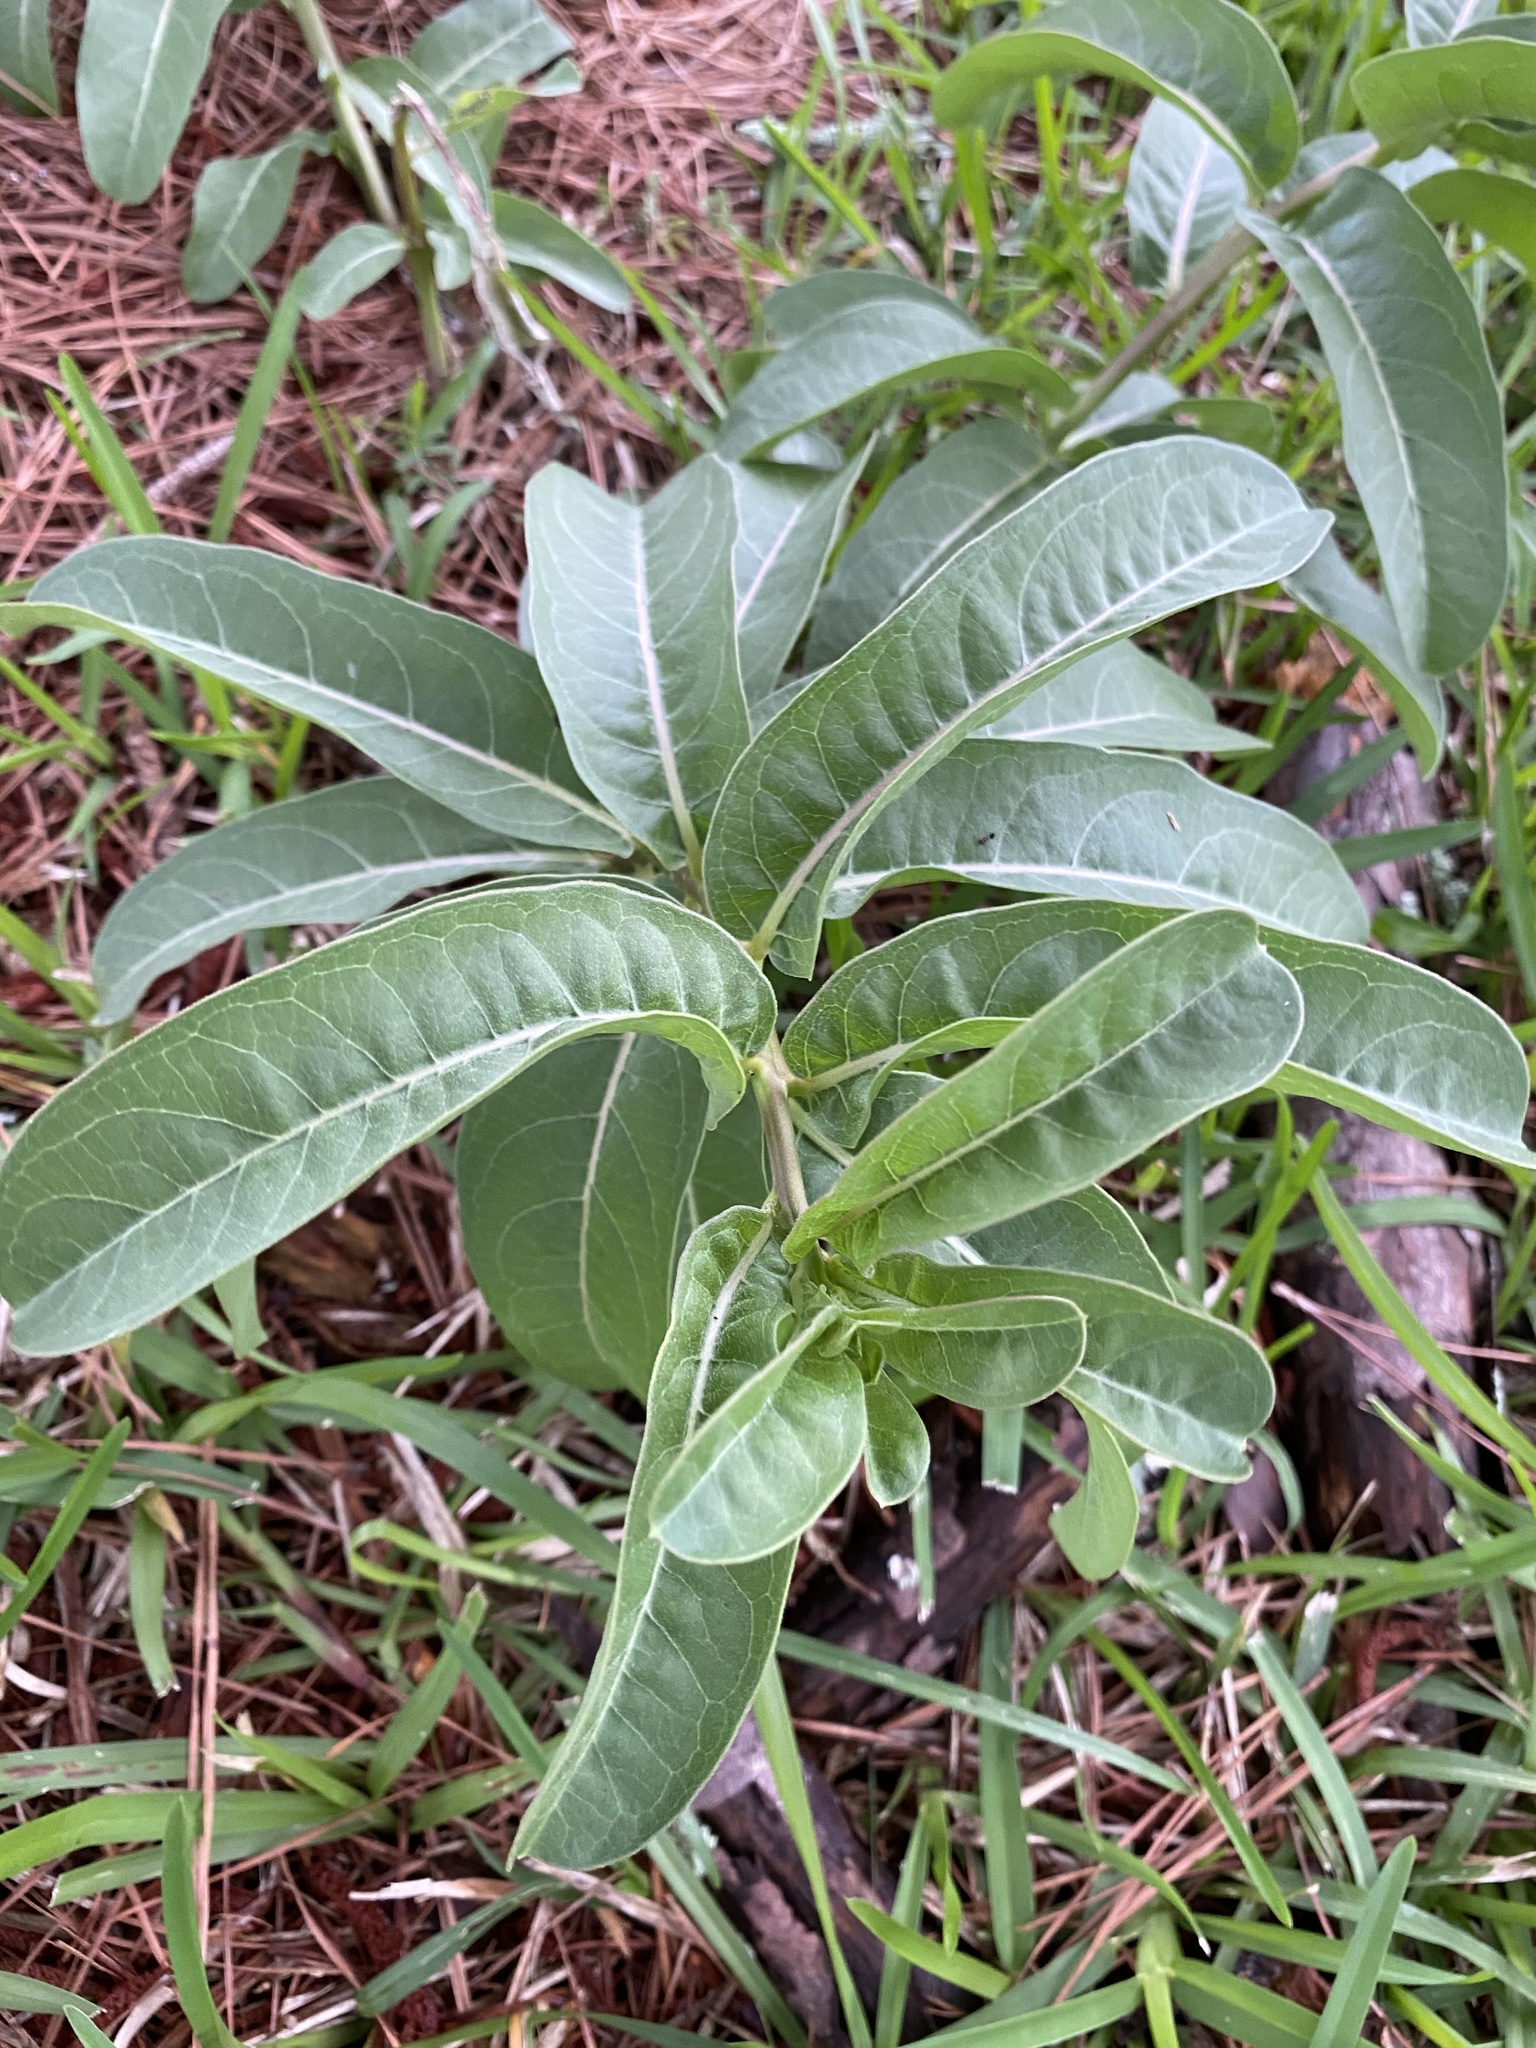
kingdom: Plantae
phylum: Tracheophyta
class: Magnoliopsida
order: Gentianales
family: Apocynaceae
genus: Asclepias
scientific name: Asclepias viridis
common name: Antelope-horns
